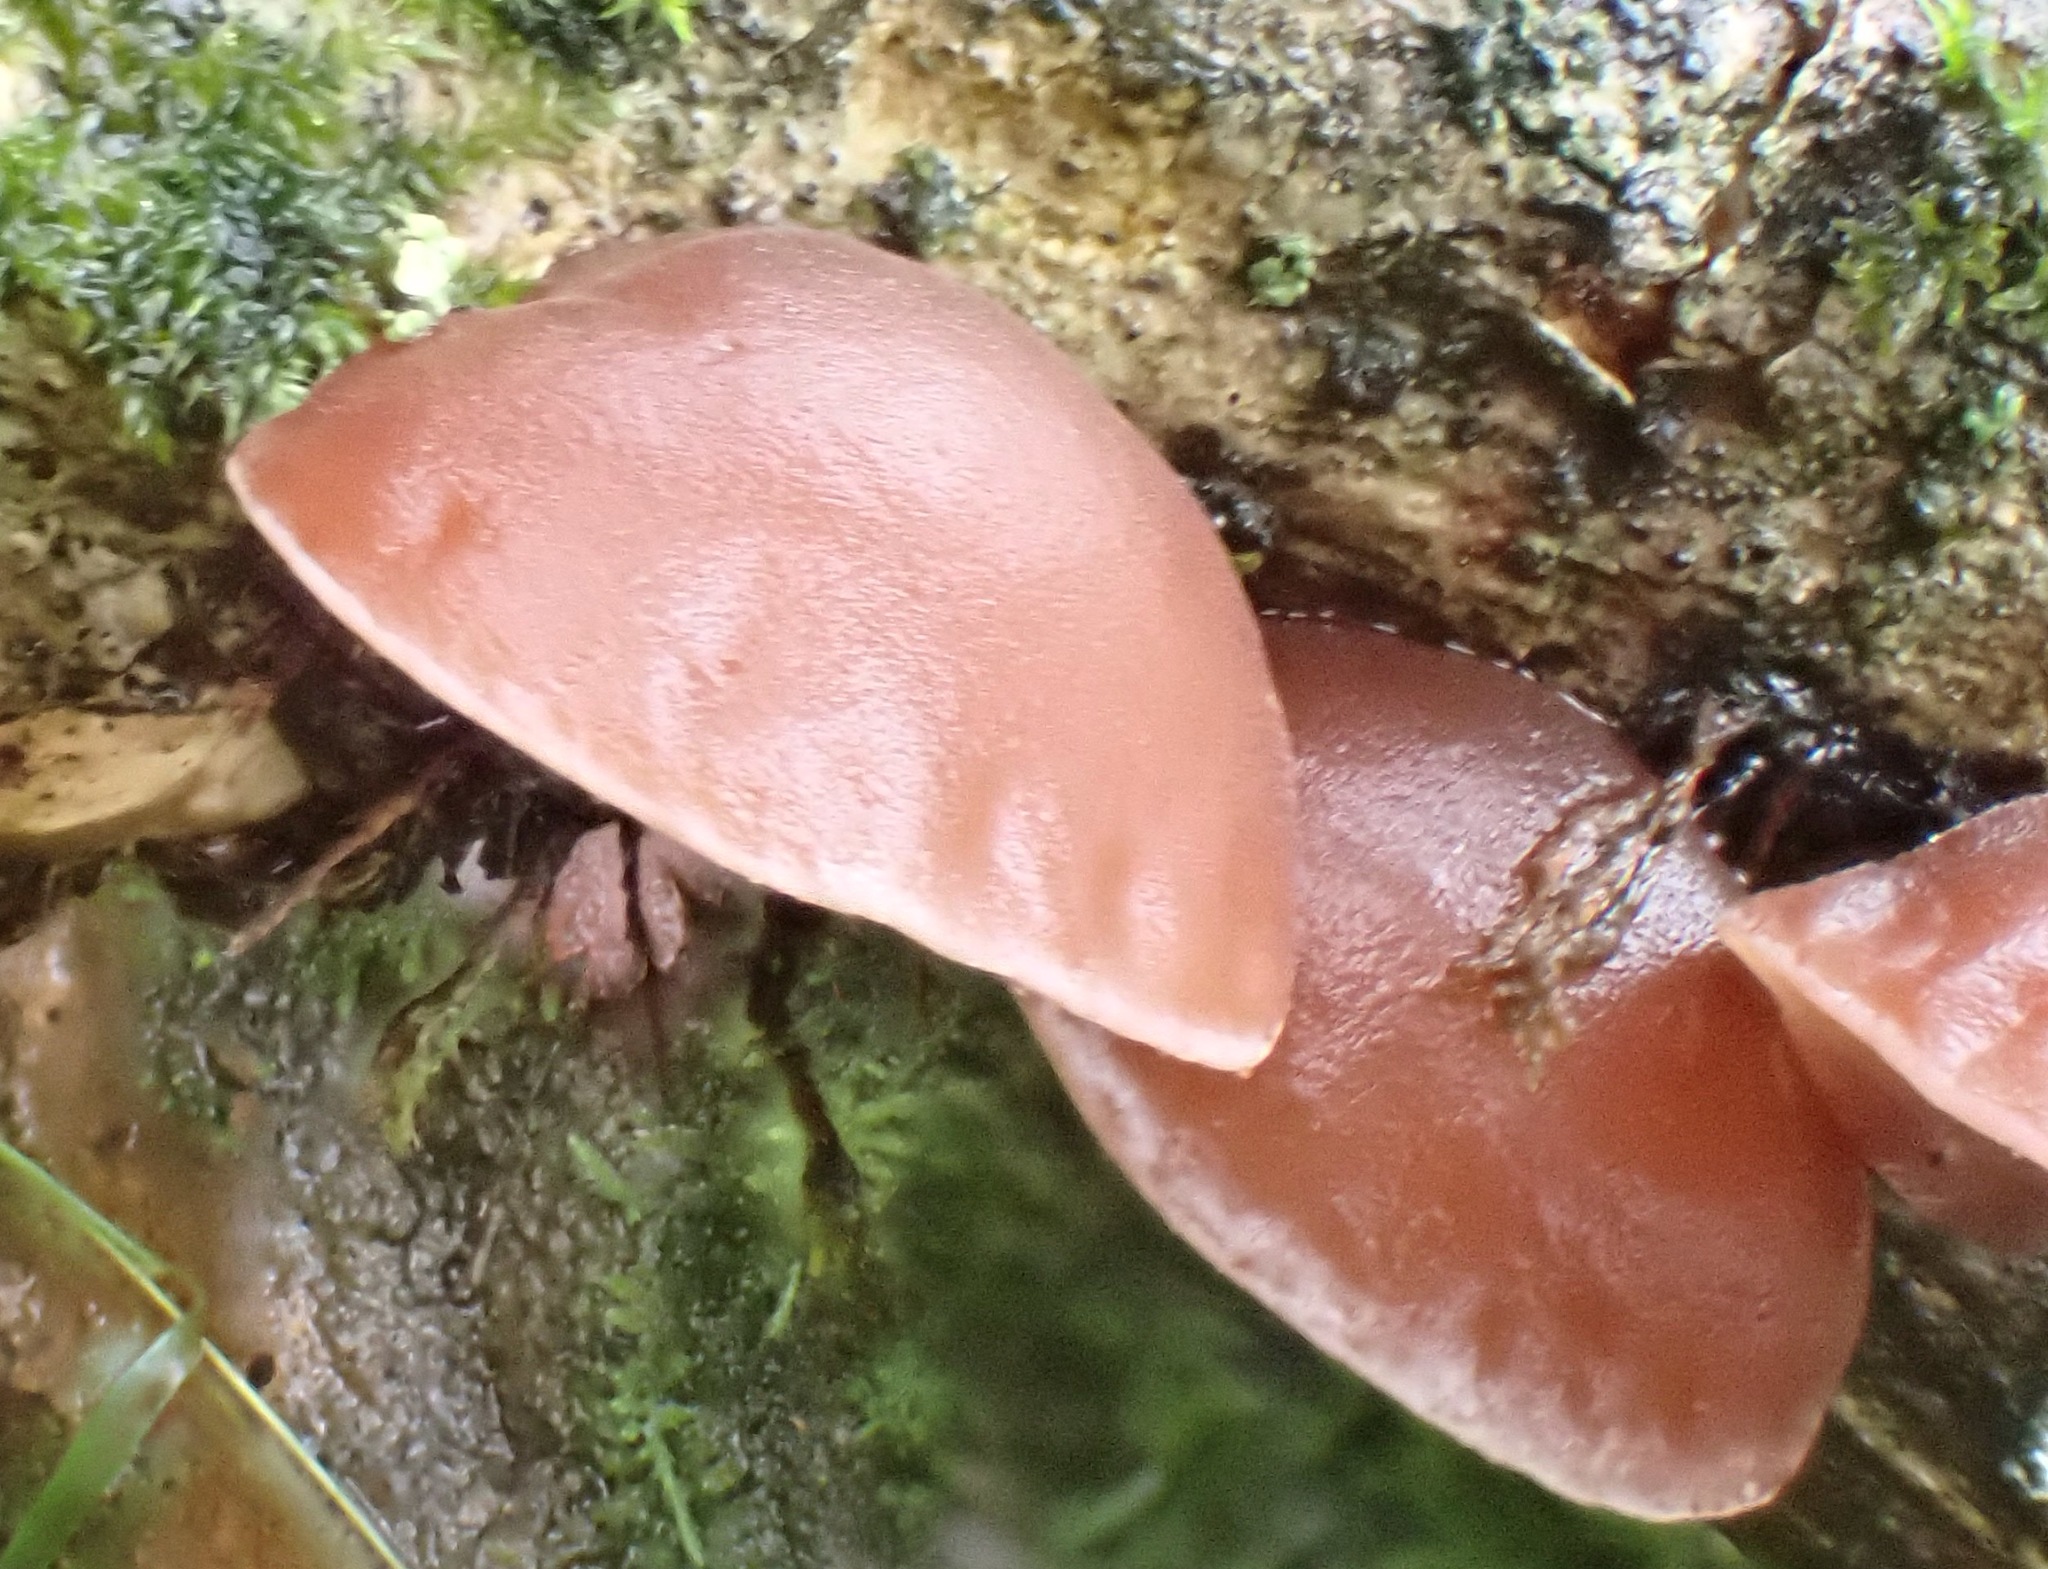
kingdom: Fungi
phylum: Basidiomycota
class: Agaricomycetes
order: Auriculariales
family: Auriculariaceae
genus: Auricularia
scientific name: Auricularia auricula-judae
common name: Jelly ear
